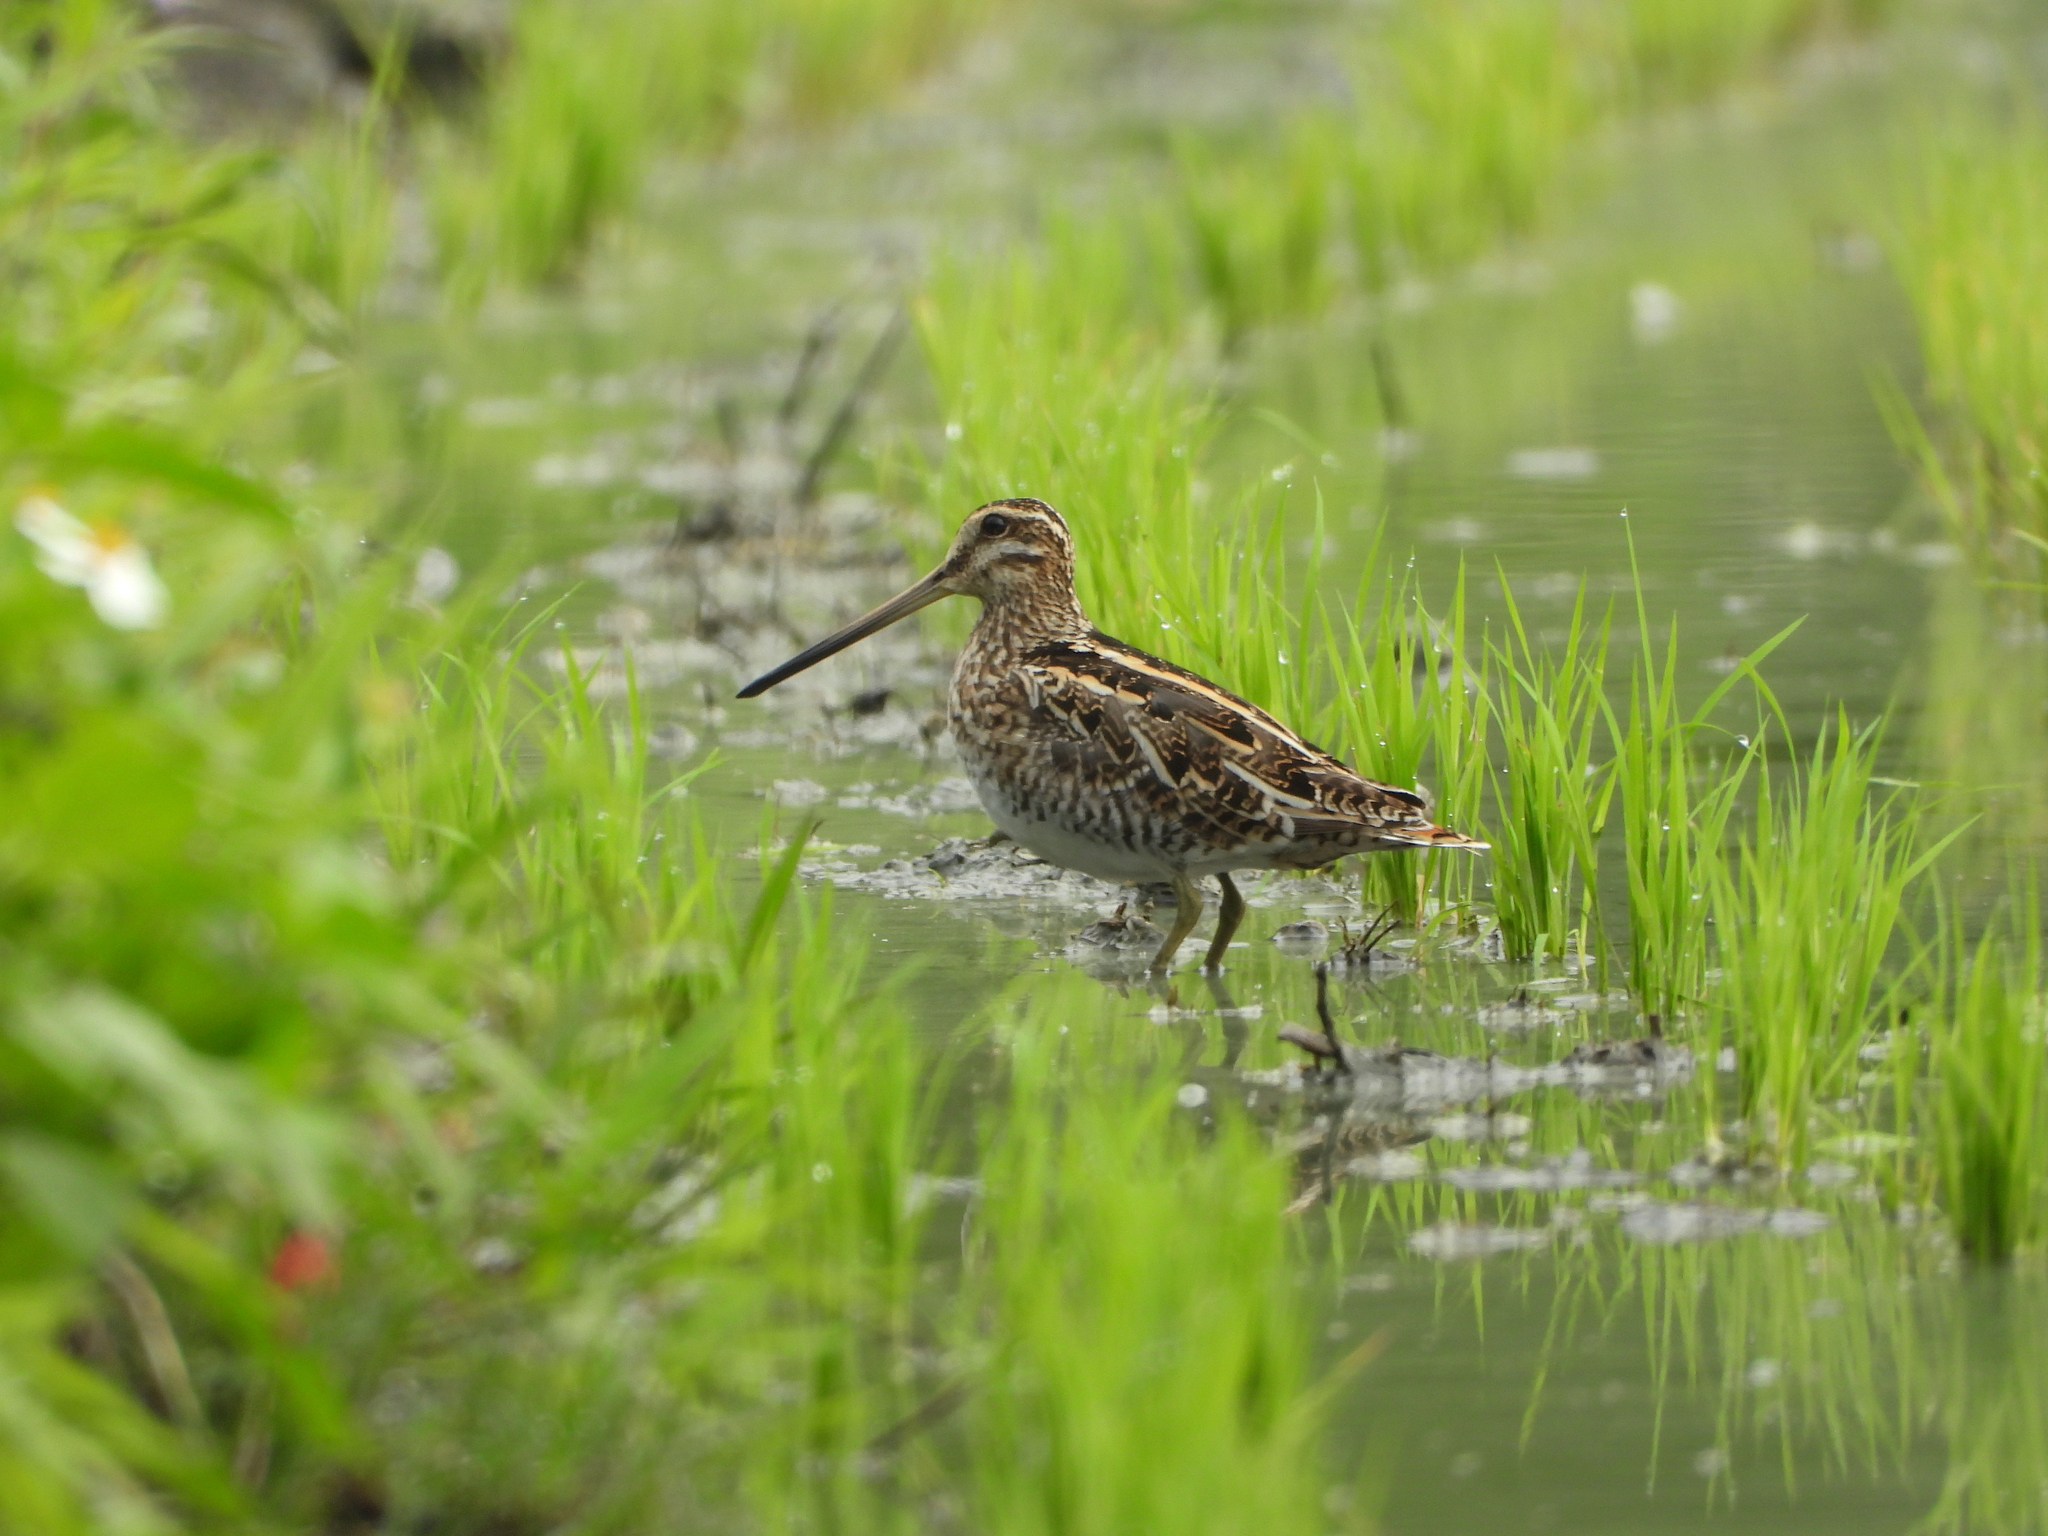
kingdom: Animalia
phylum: Chordata
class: Aves
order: Charadriiformes
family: Scolopacidae
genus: Gallinago
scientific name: Gallinago gallinago
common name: Common snipe
